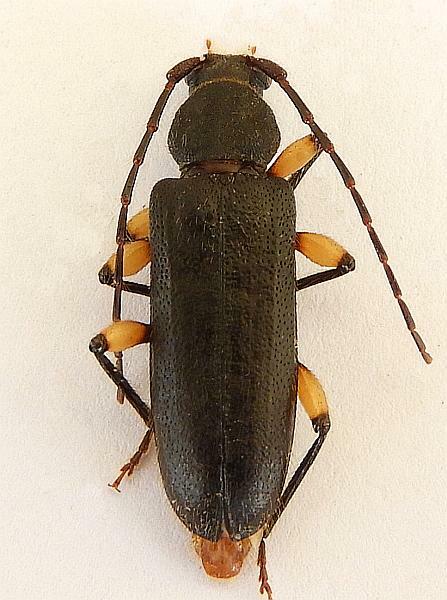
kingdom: Animalia
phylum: Arthropoda
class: Insecta
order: Coleoptera
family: Cerambycidae
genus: Tylonotus
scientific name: Tylonotus bimaculatus
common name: Ash and privet borer
